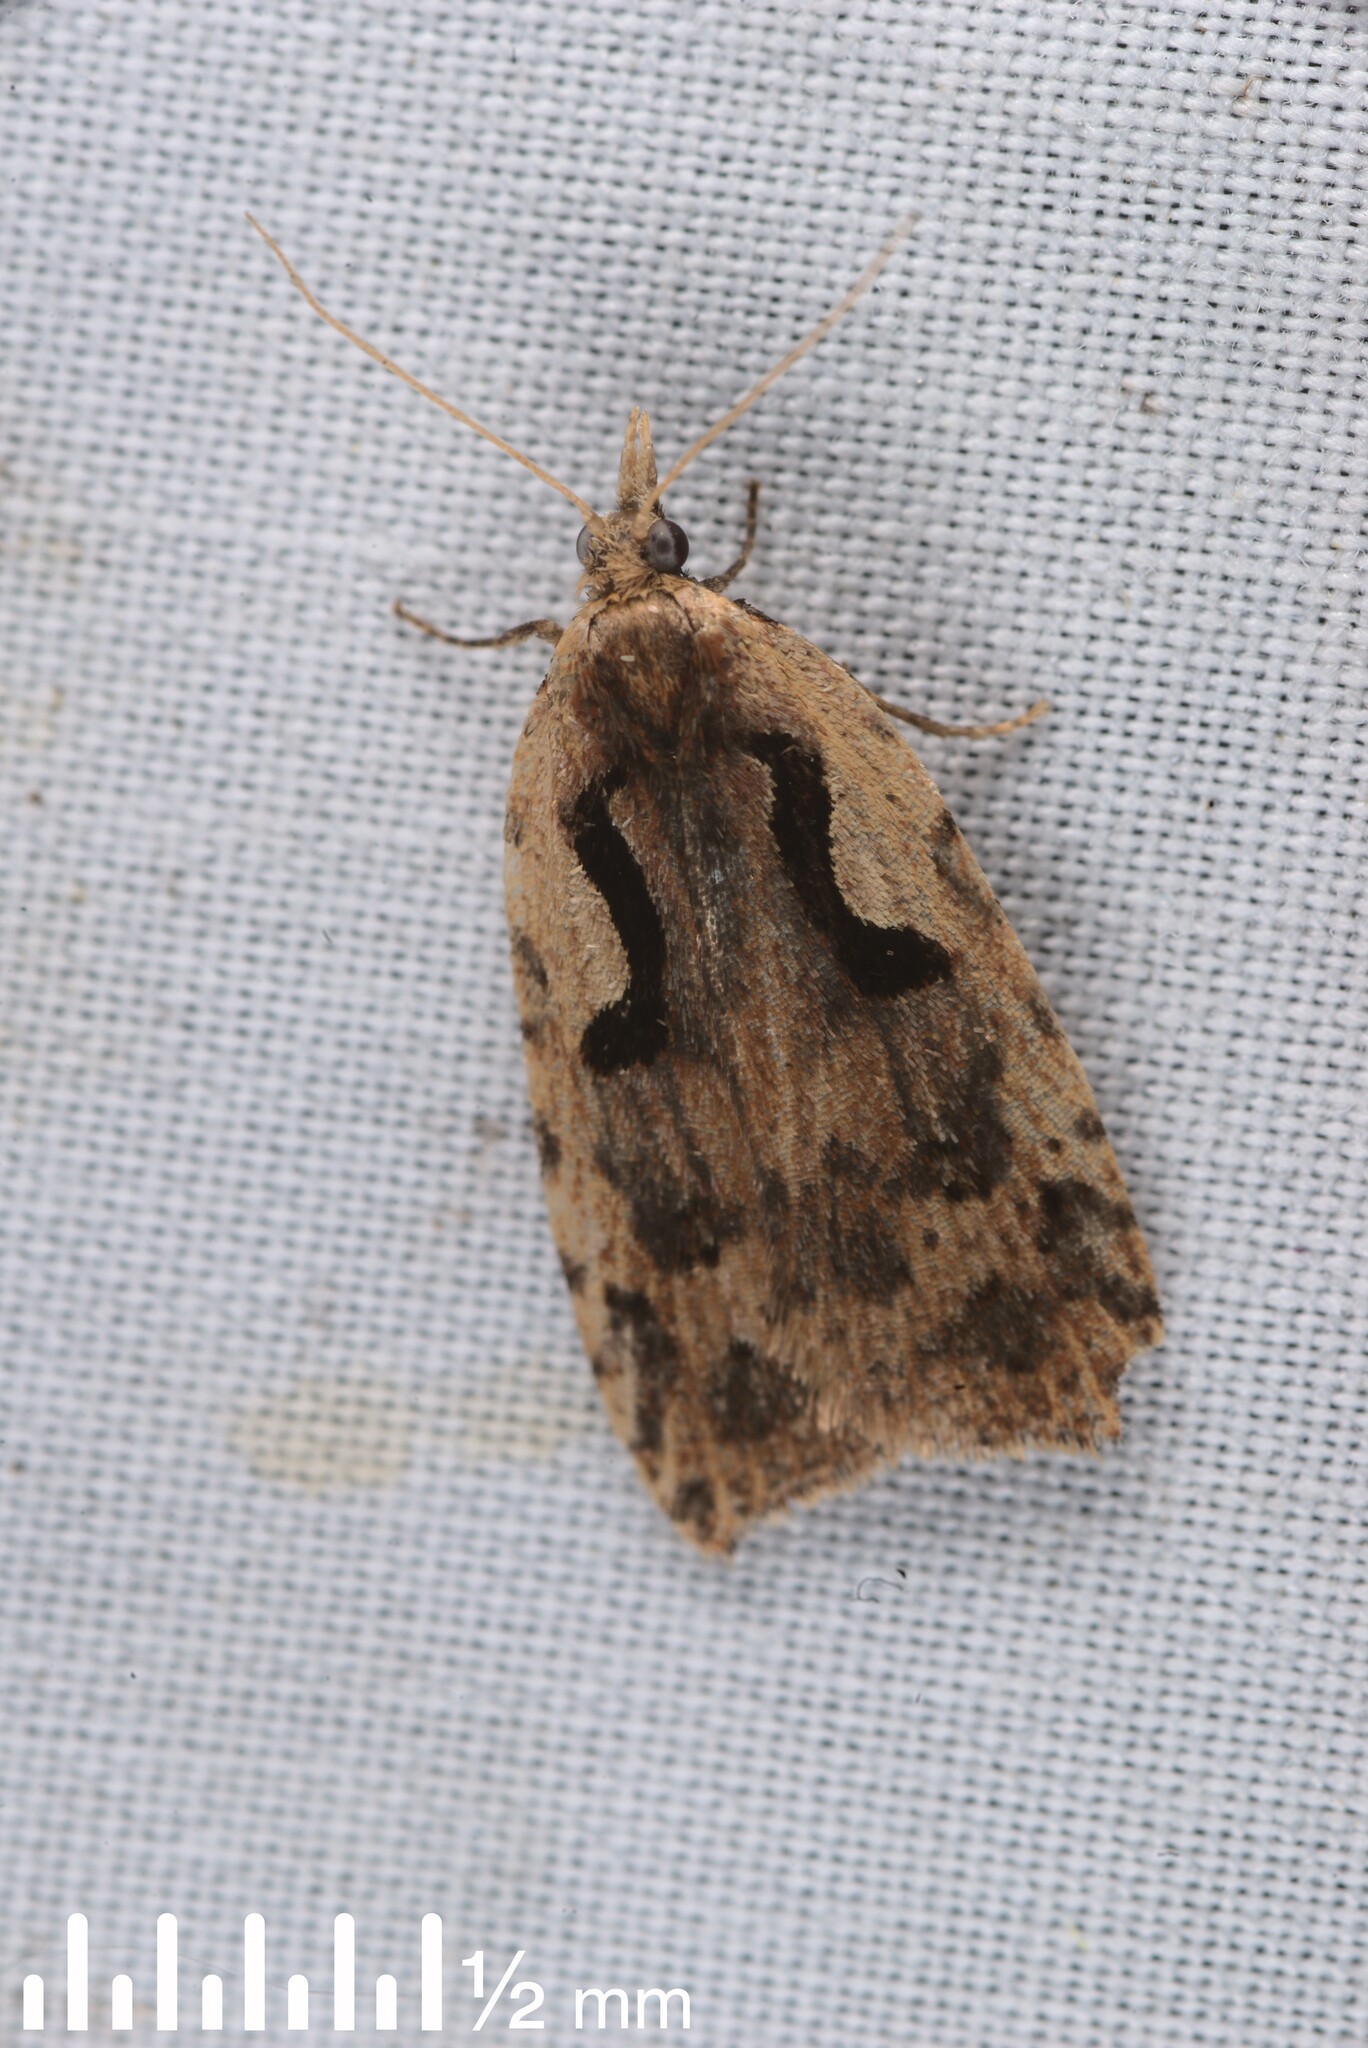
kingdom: Animalia
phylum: Arthropoda
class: Insecta
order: Lepidoptera
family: Tortricidae
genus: Cnephasia
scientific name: Cnephasia jactatana
